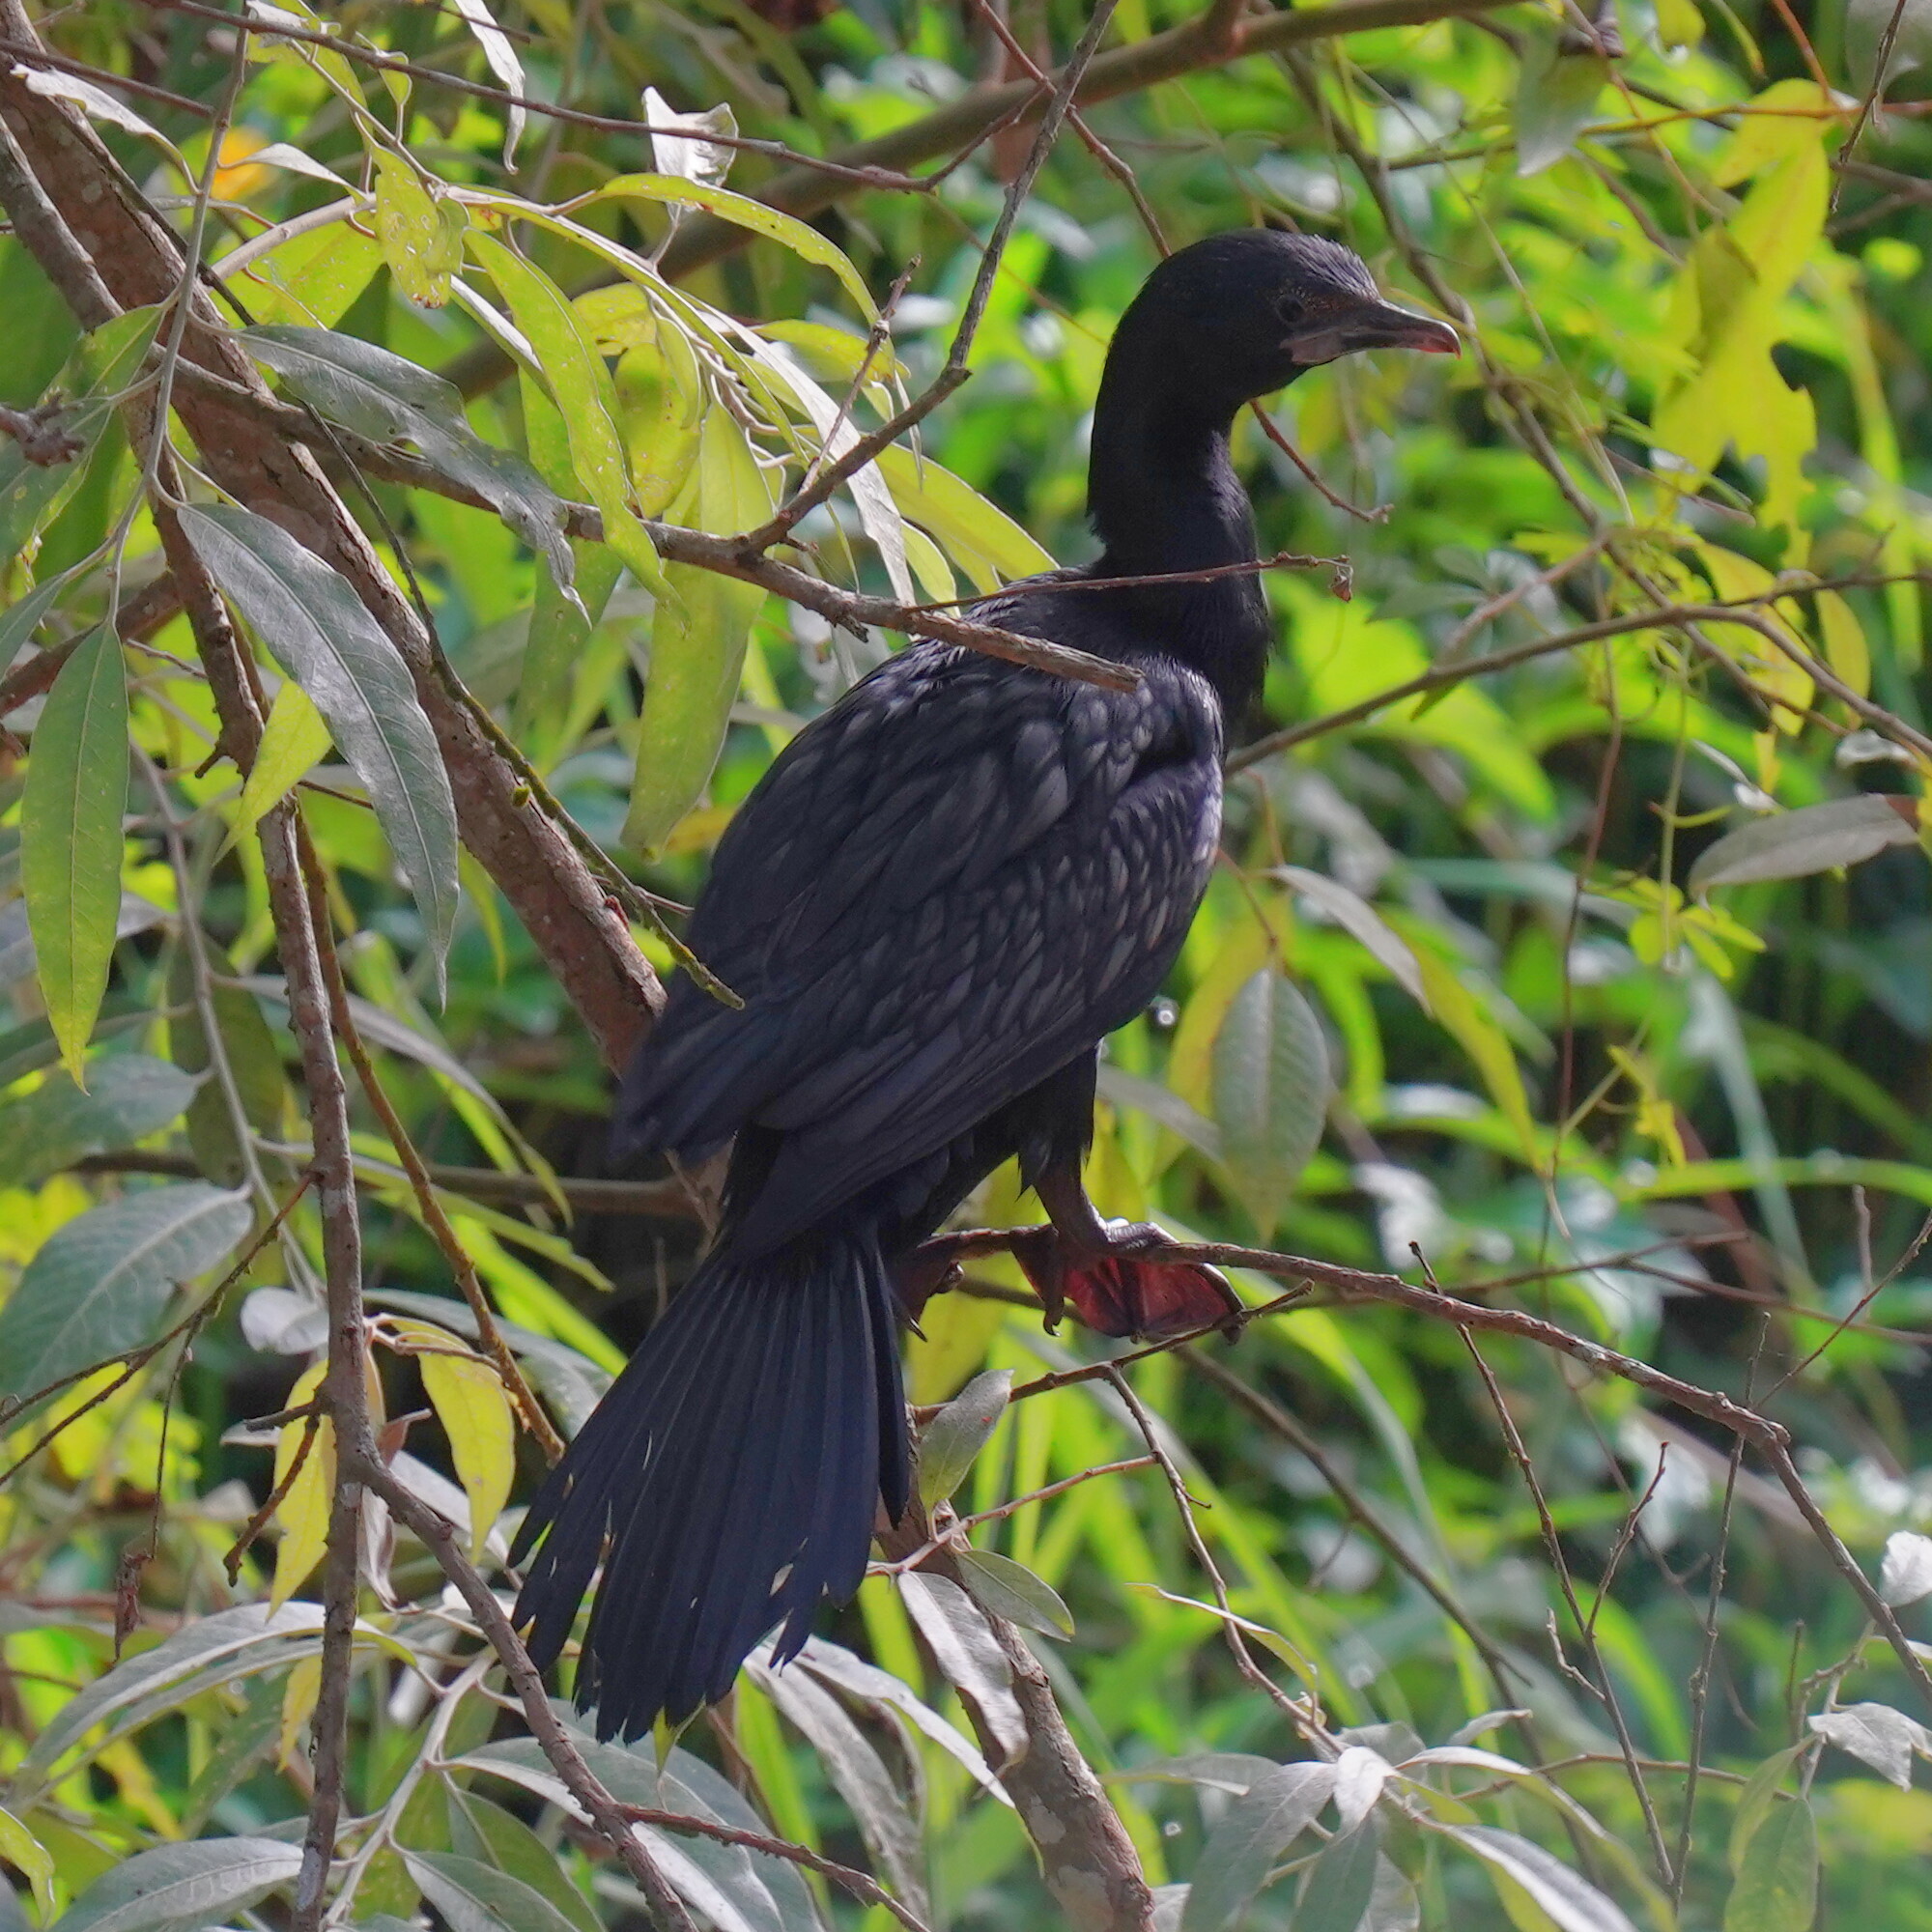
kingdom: Animalia
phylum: Chordata
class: Aves
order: Suliformes
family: Phalacrocoracidae
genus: Microcarbo
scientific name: Microcarbo niger
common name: Little cormorant
